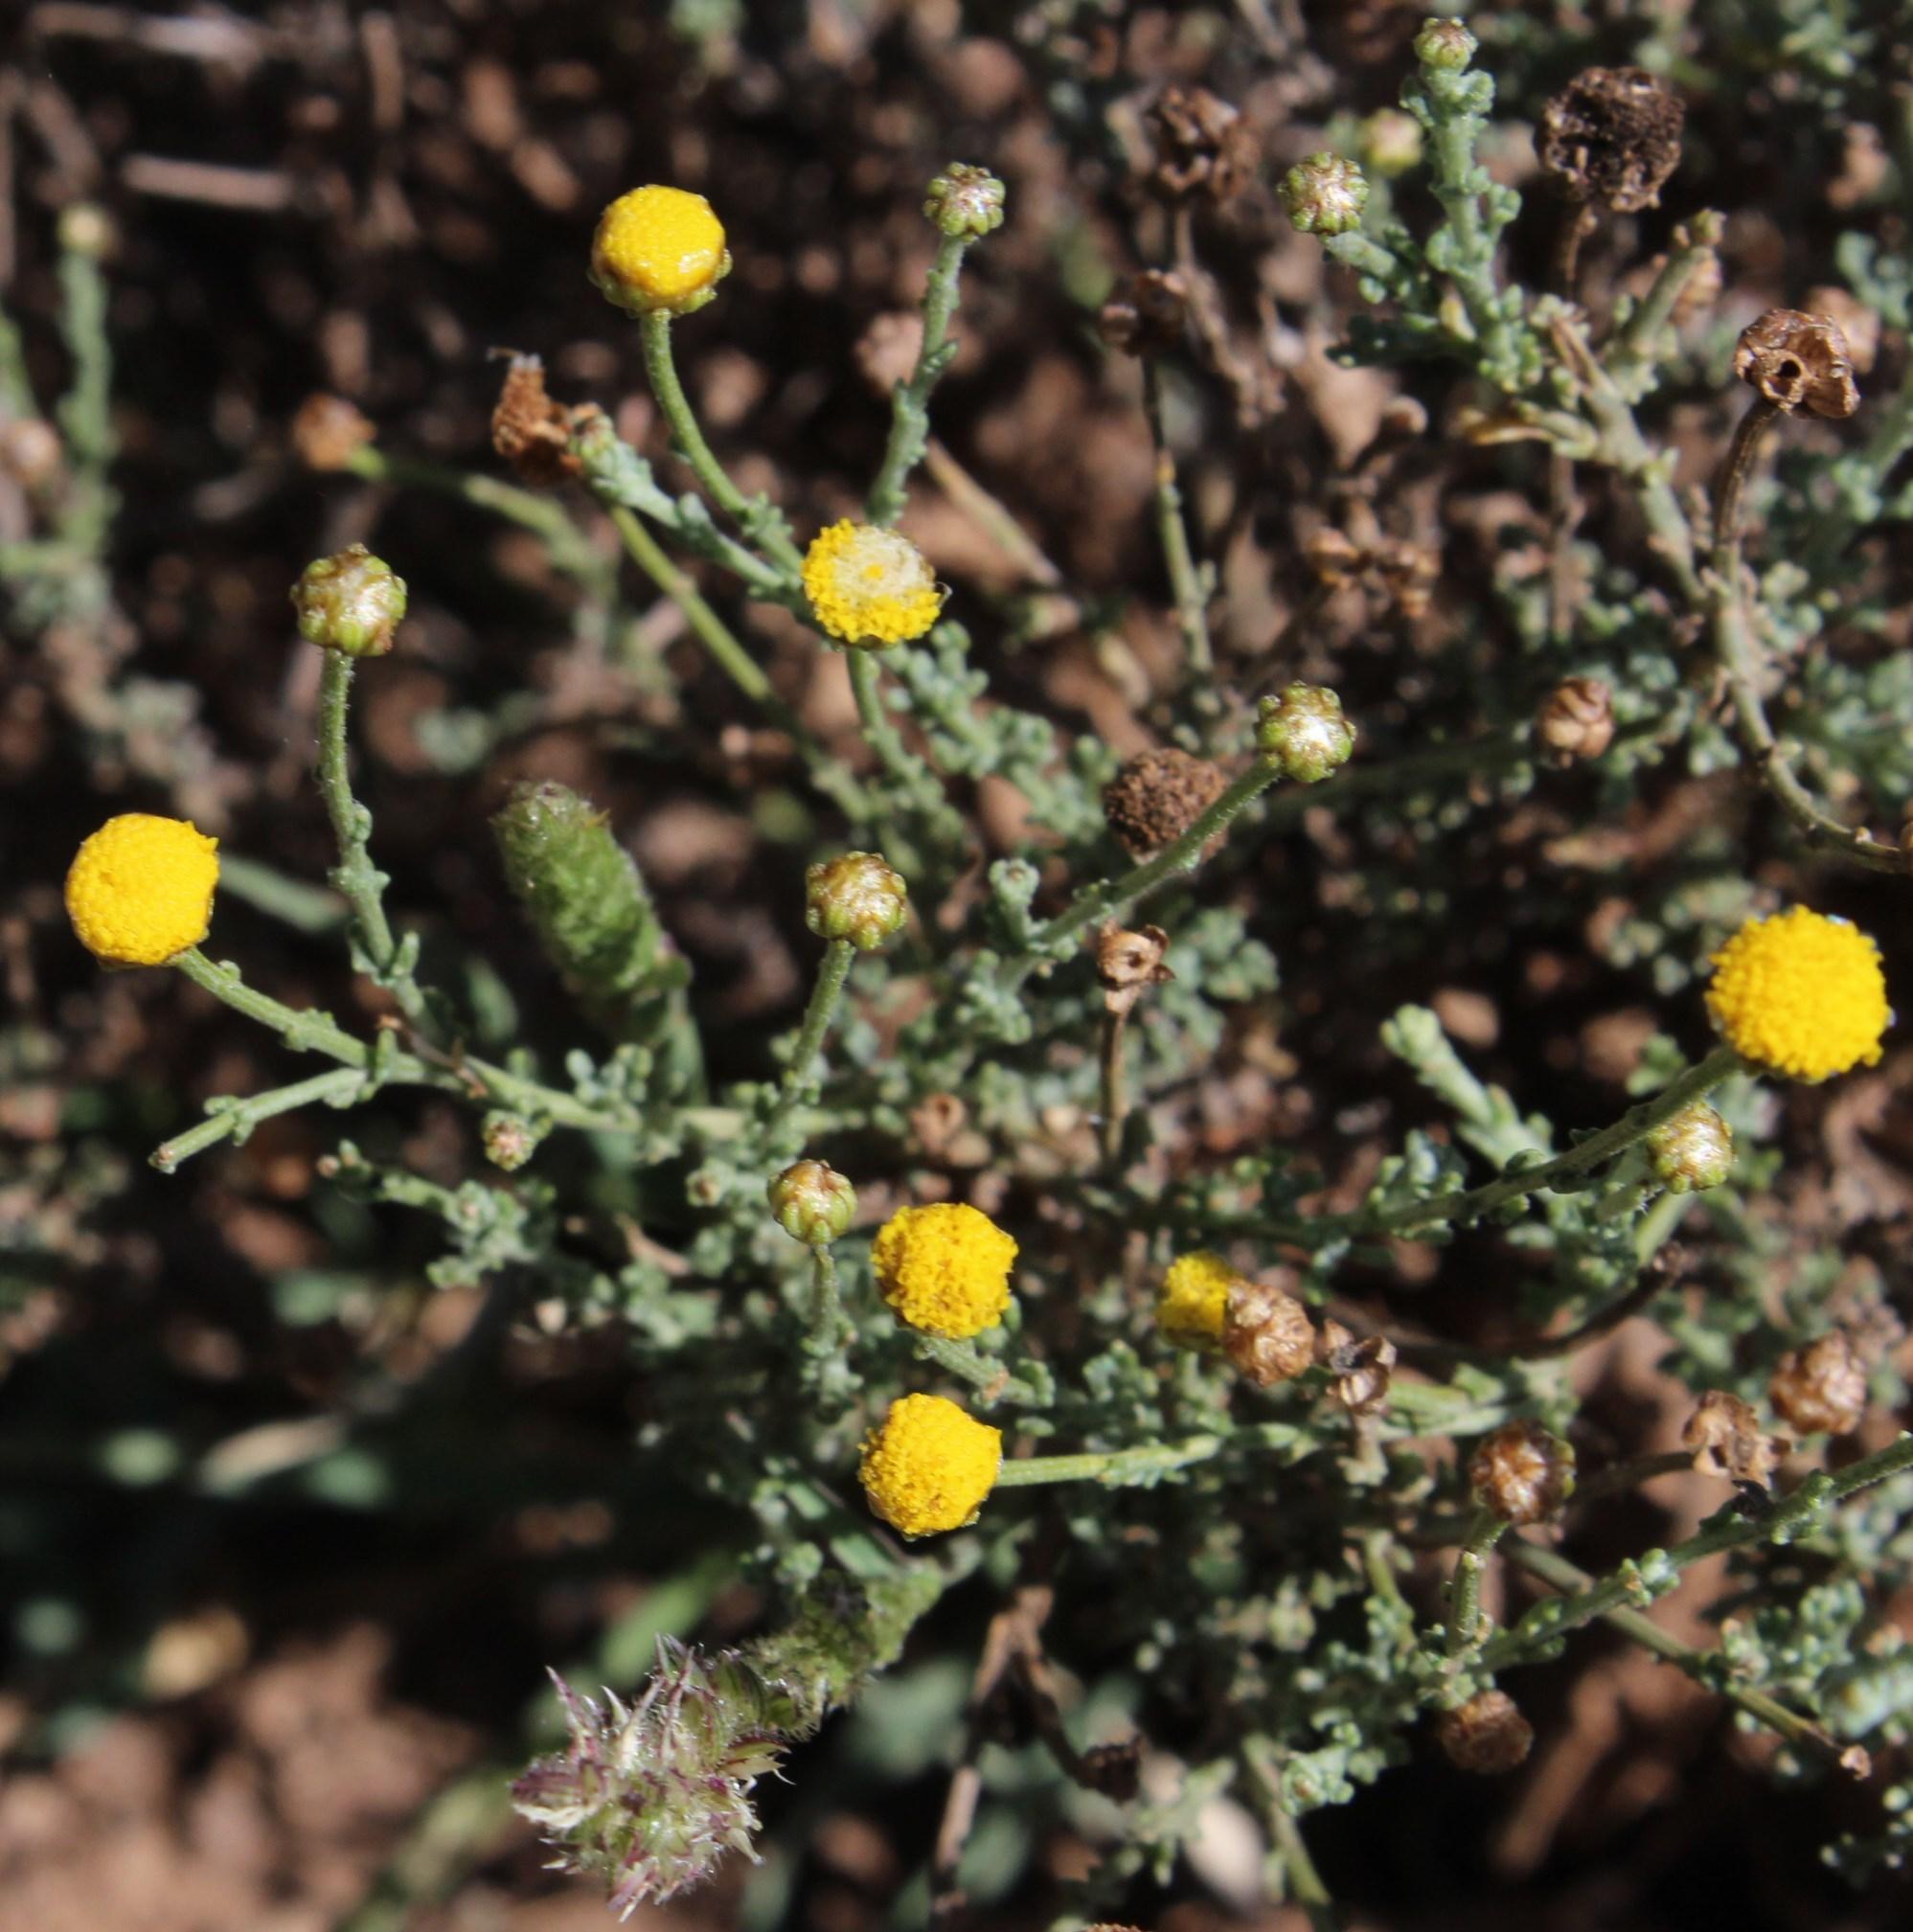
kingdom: Plantae
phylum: Tracheophyta
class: Magnoliopsida
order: Asterales
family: Asteraceae
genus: Pentzia
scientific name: Pentzia incana
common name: African sheepbush
